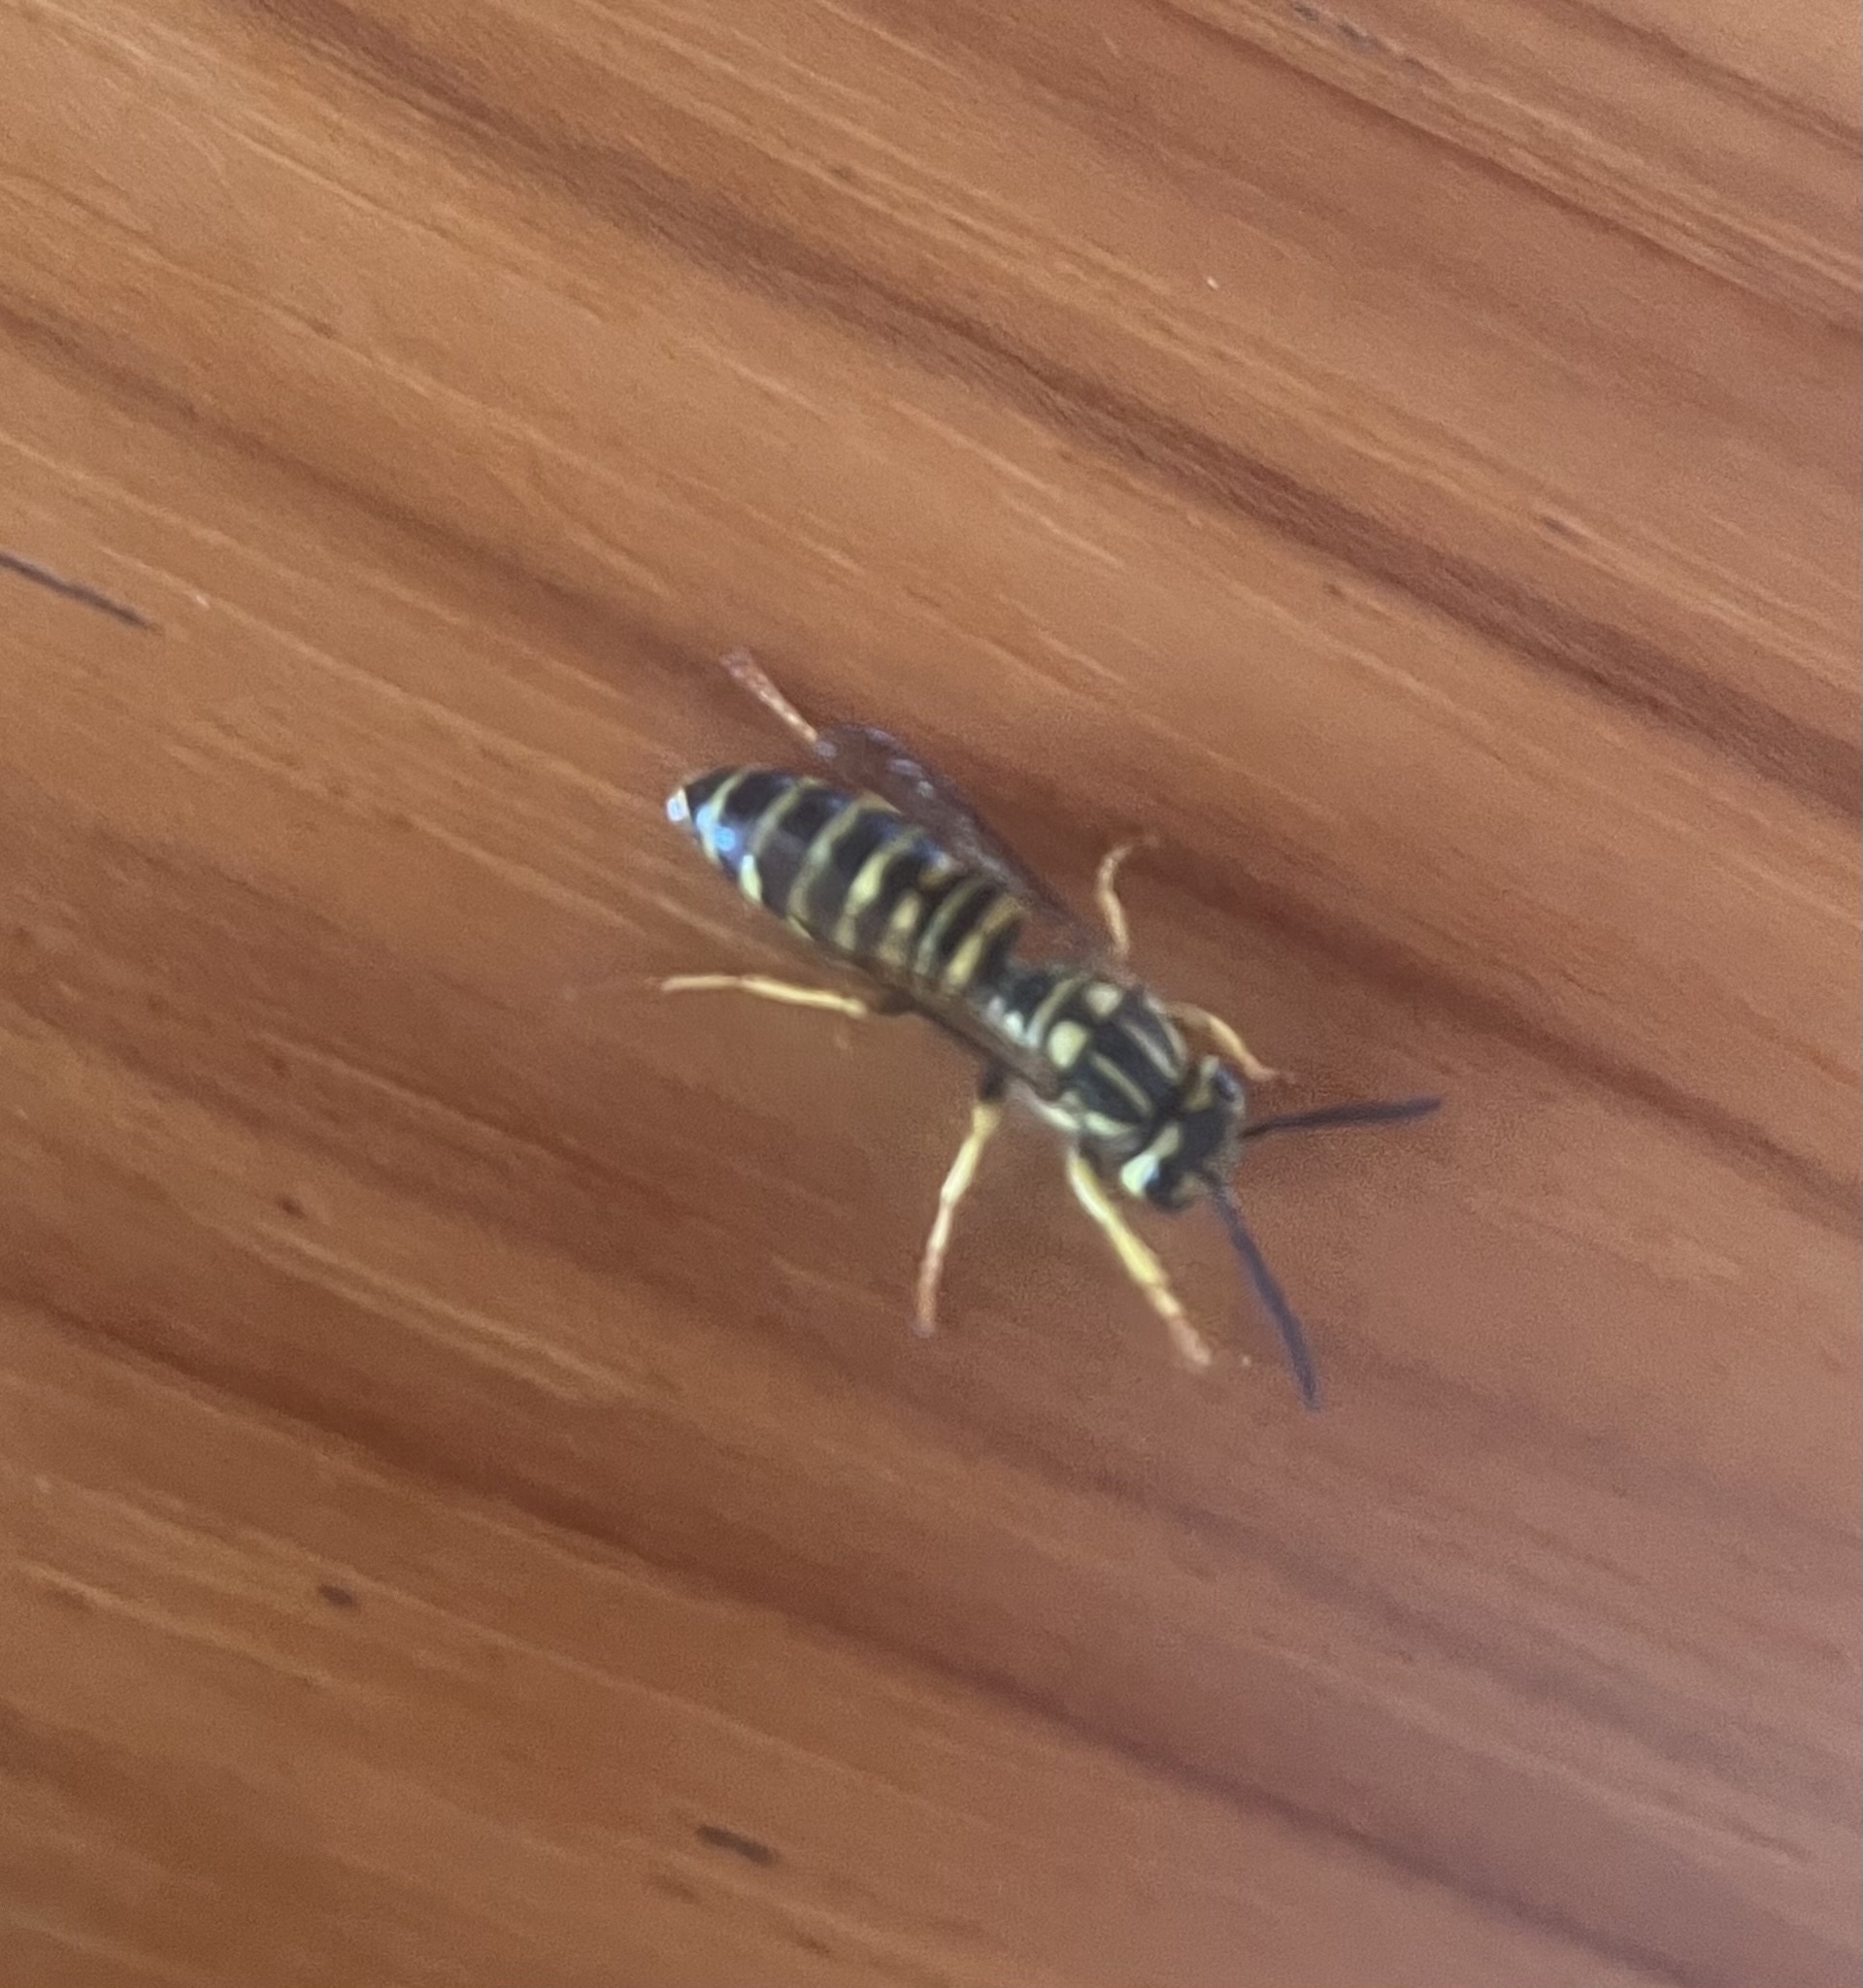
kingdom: Animalia
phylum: Arthropoda
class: Insecta
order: Hymenoptera
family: Vespidae
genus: Vespula
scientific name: Vespula squamosa
